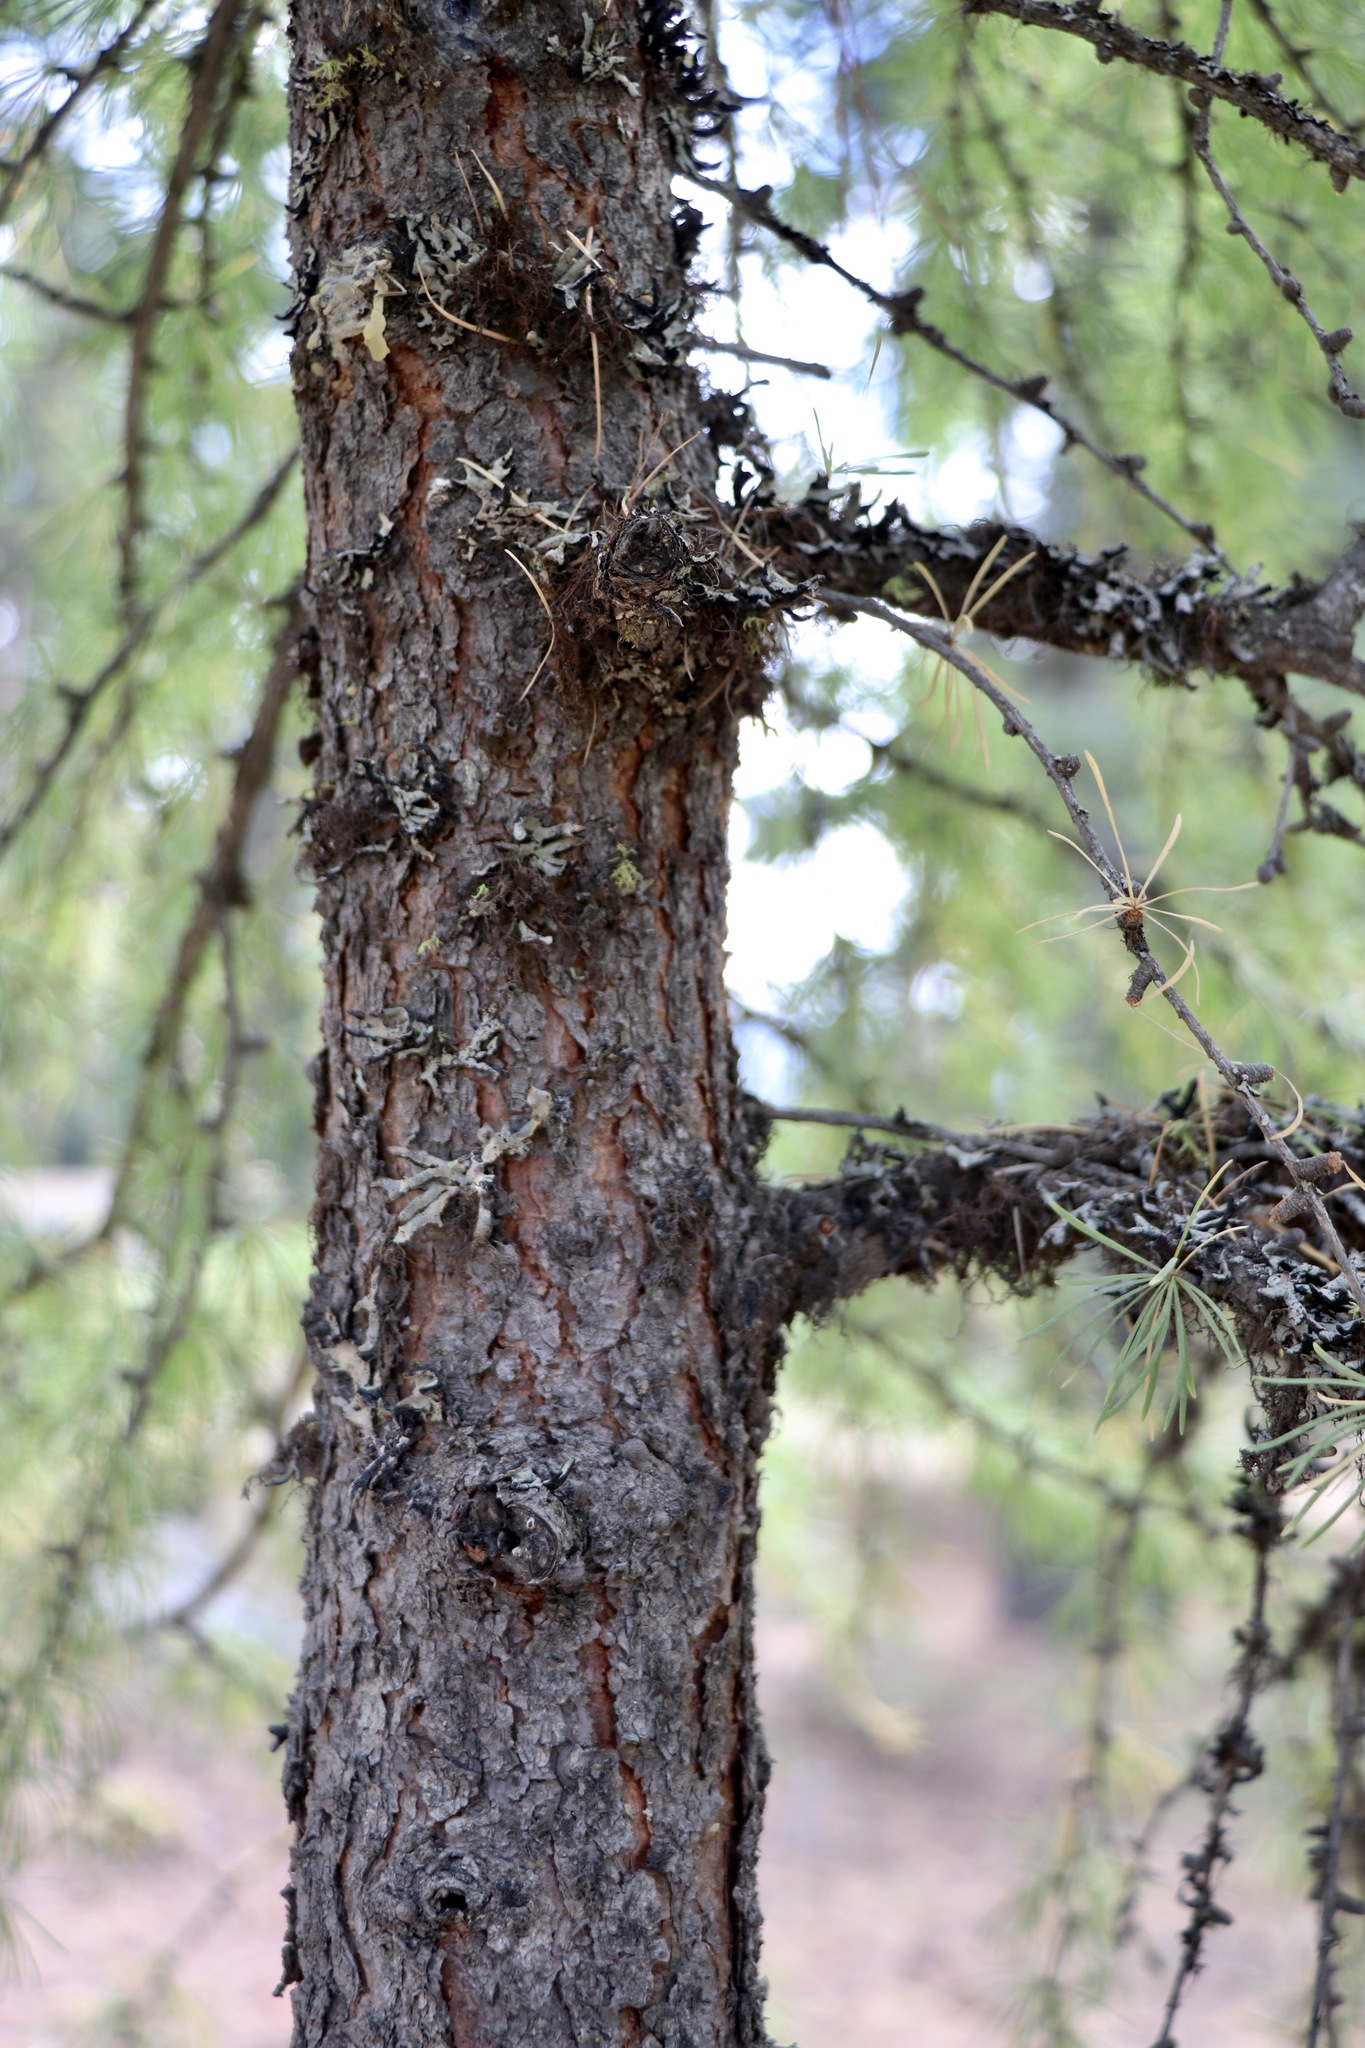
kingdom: Plantae
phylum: Tracheophyta
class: Pinopsida
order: Pinales
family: Pinaceae
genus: Larix
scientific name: Larix occidentalis
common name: Western larch
